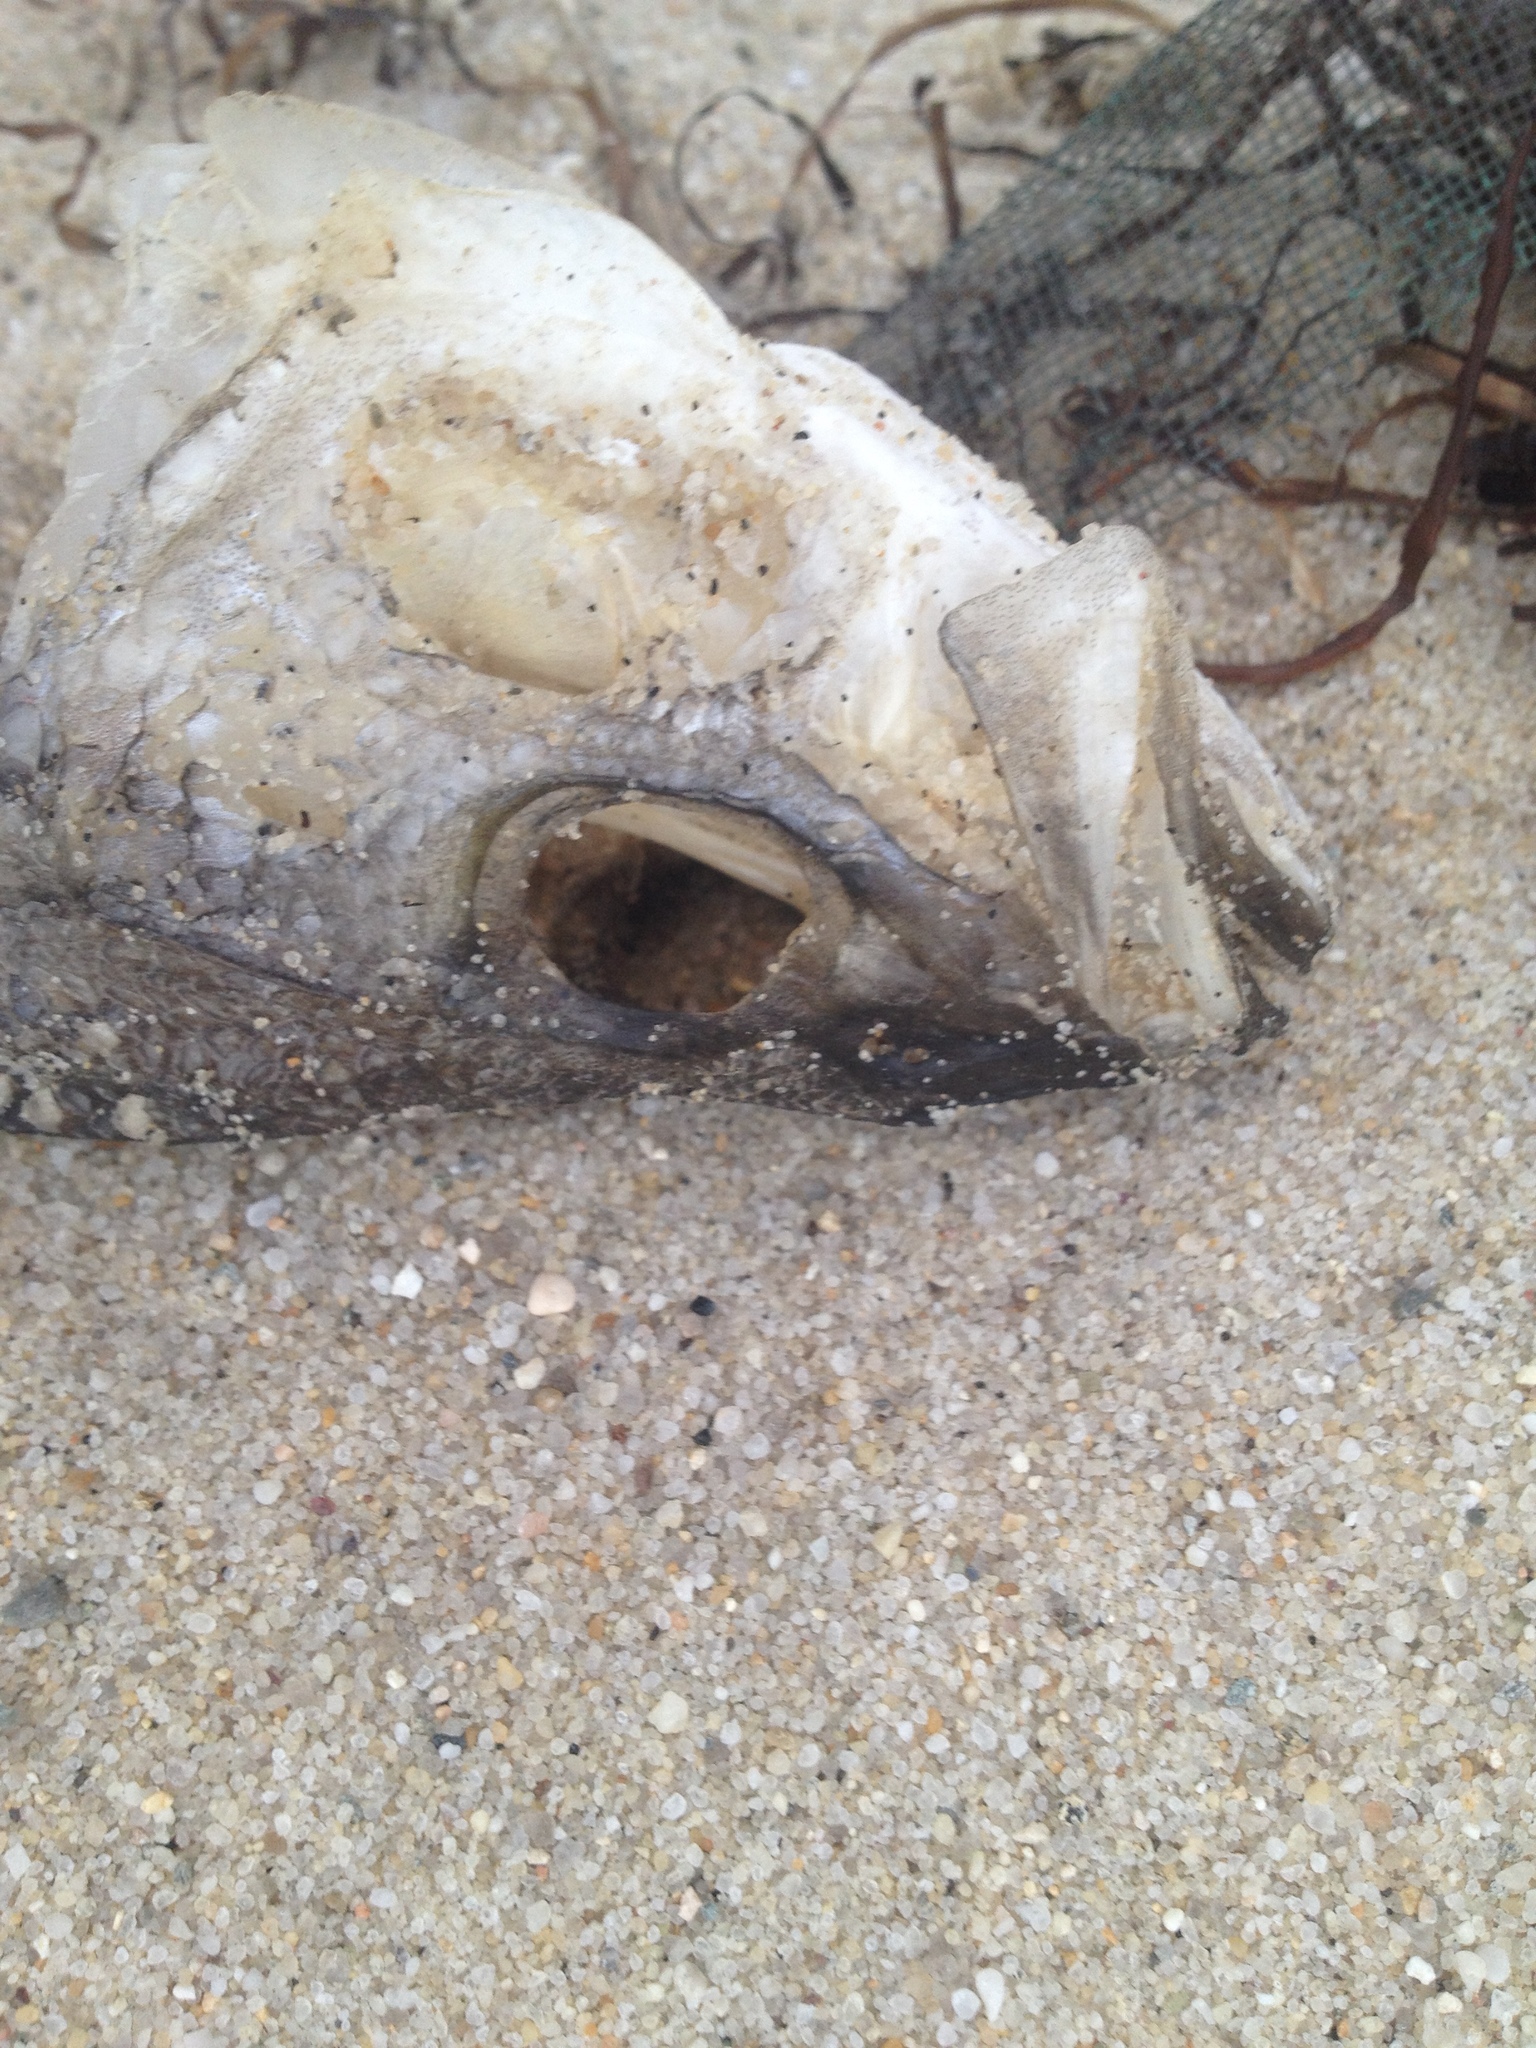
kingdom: Animalia
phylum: Chordata
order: Perciformes
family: Moronidae
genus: Morone
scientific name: Morone saxatilis
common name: Striped bass
